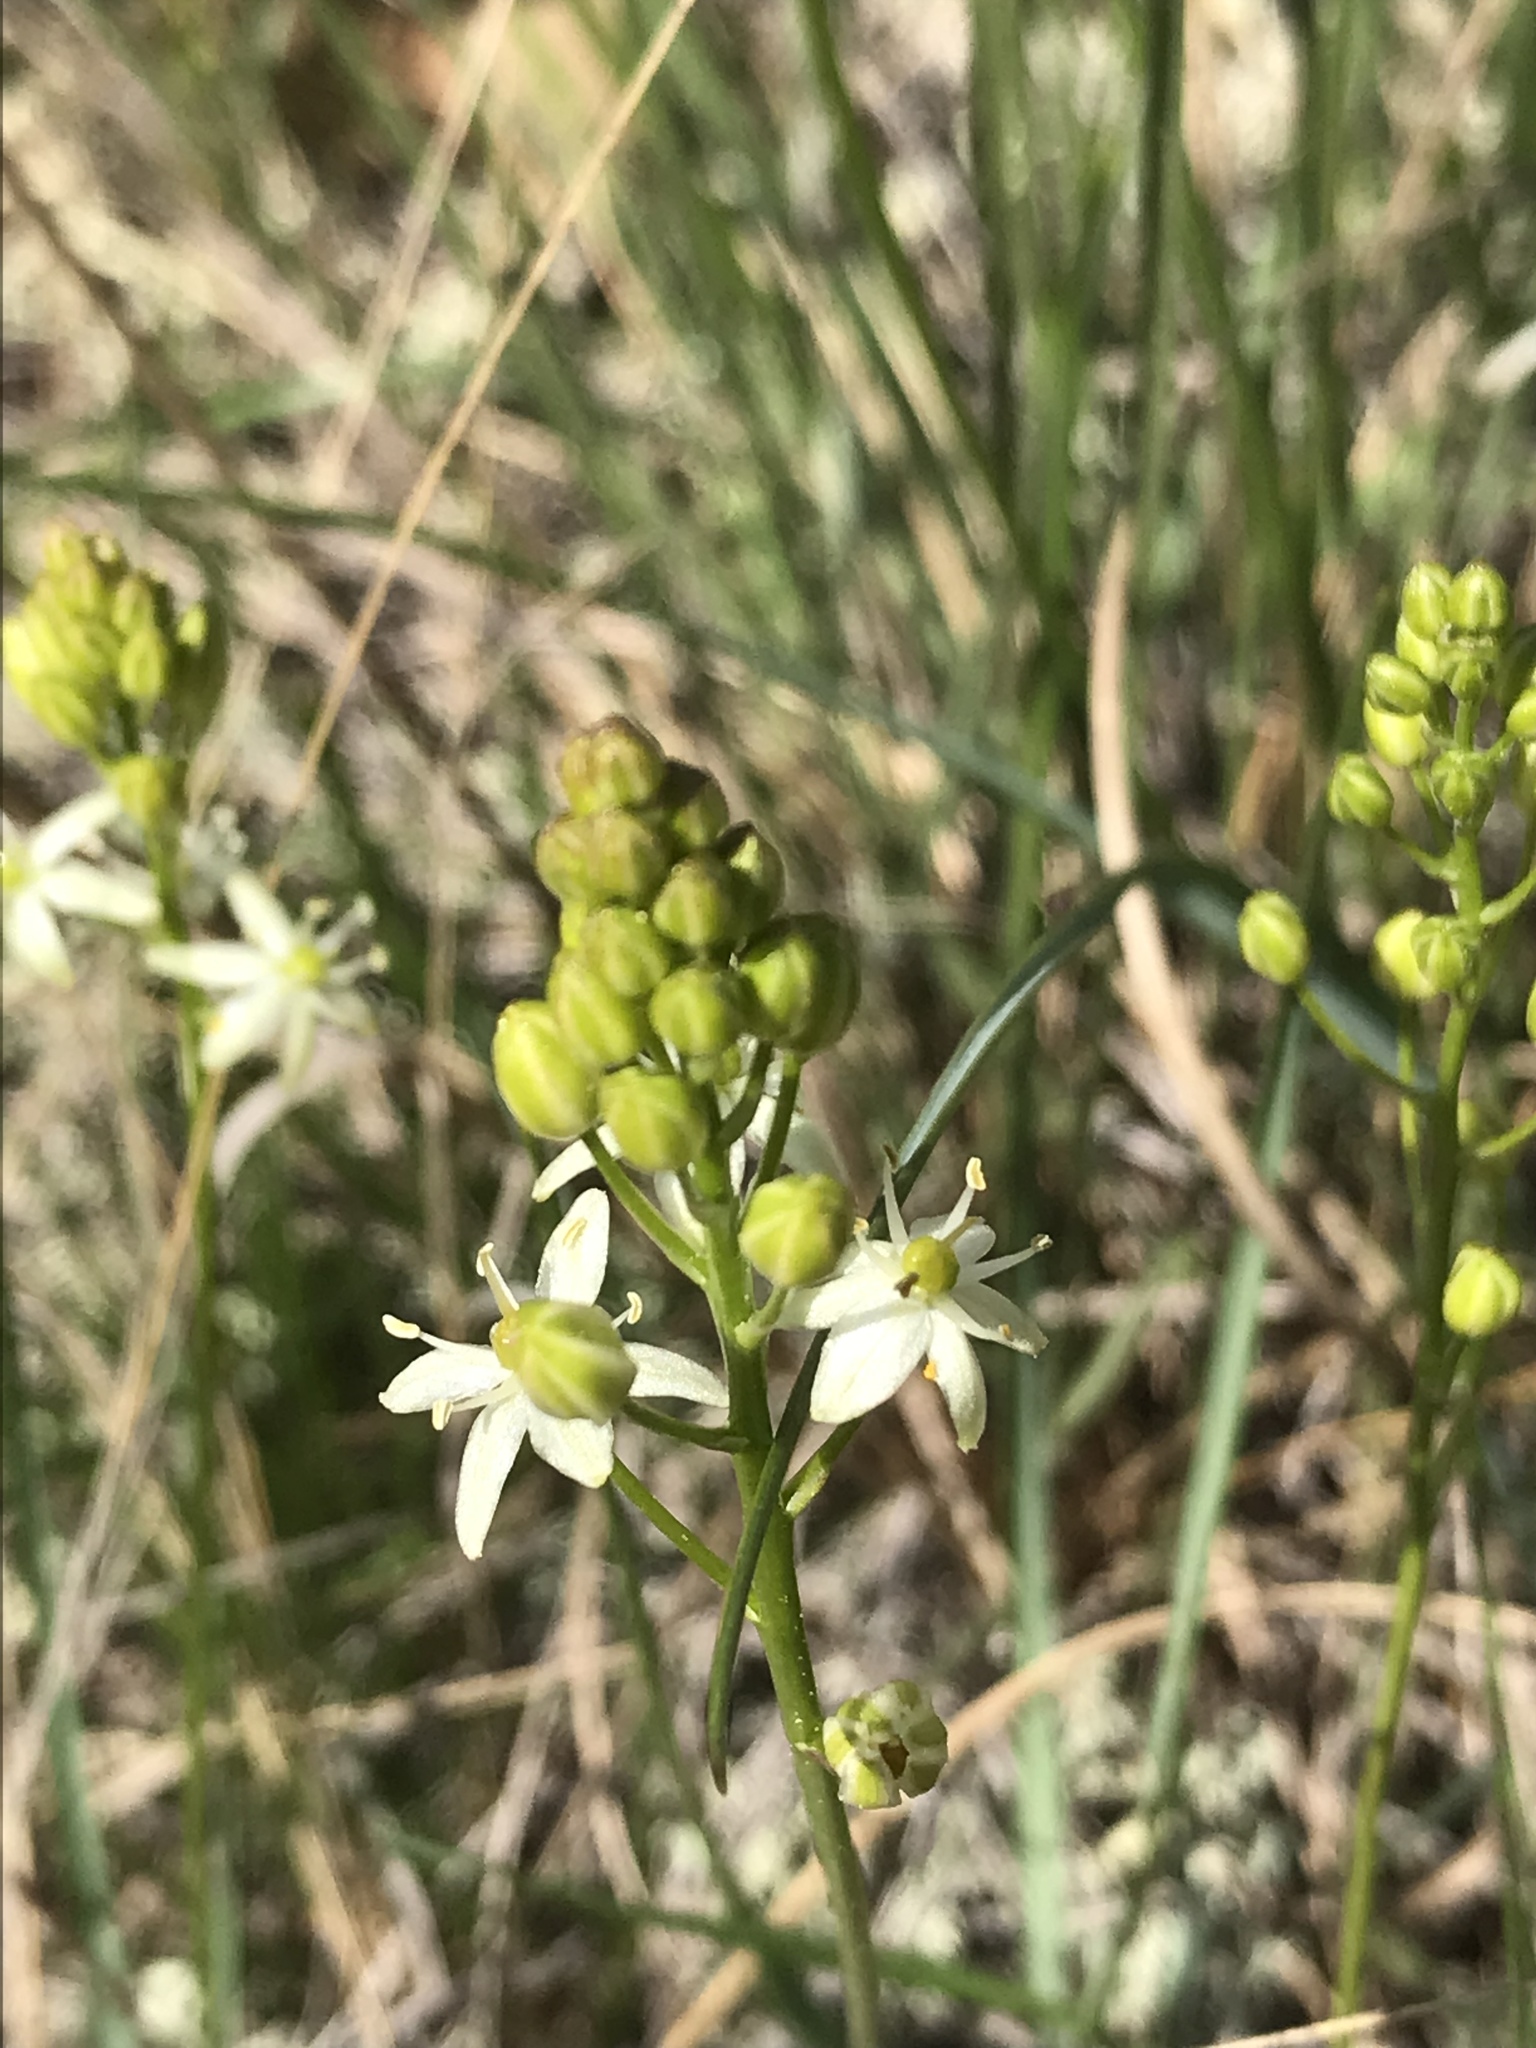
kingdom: Plantae
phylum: Tracheophyta
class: Liliopsida
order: Asparagales
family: Asparagaceae
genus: Schoenolirion
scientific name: Schoenolirion wrightii
